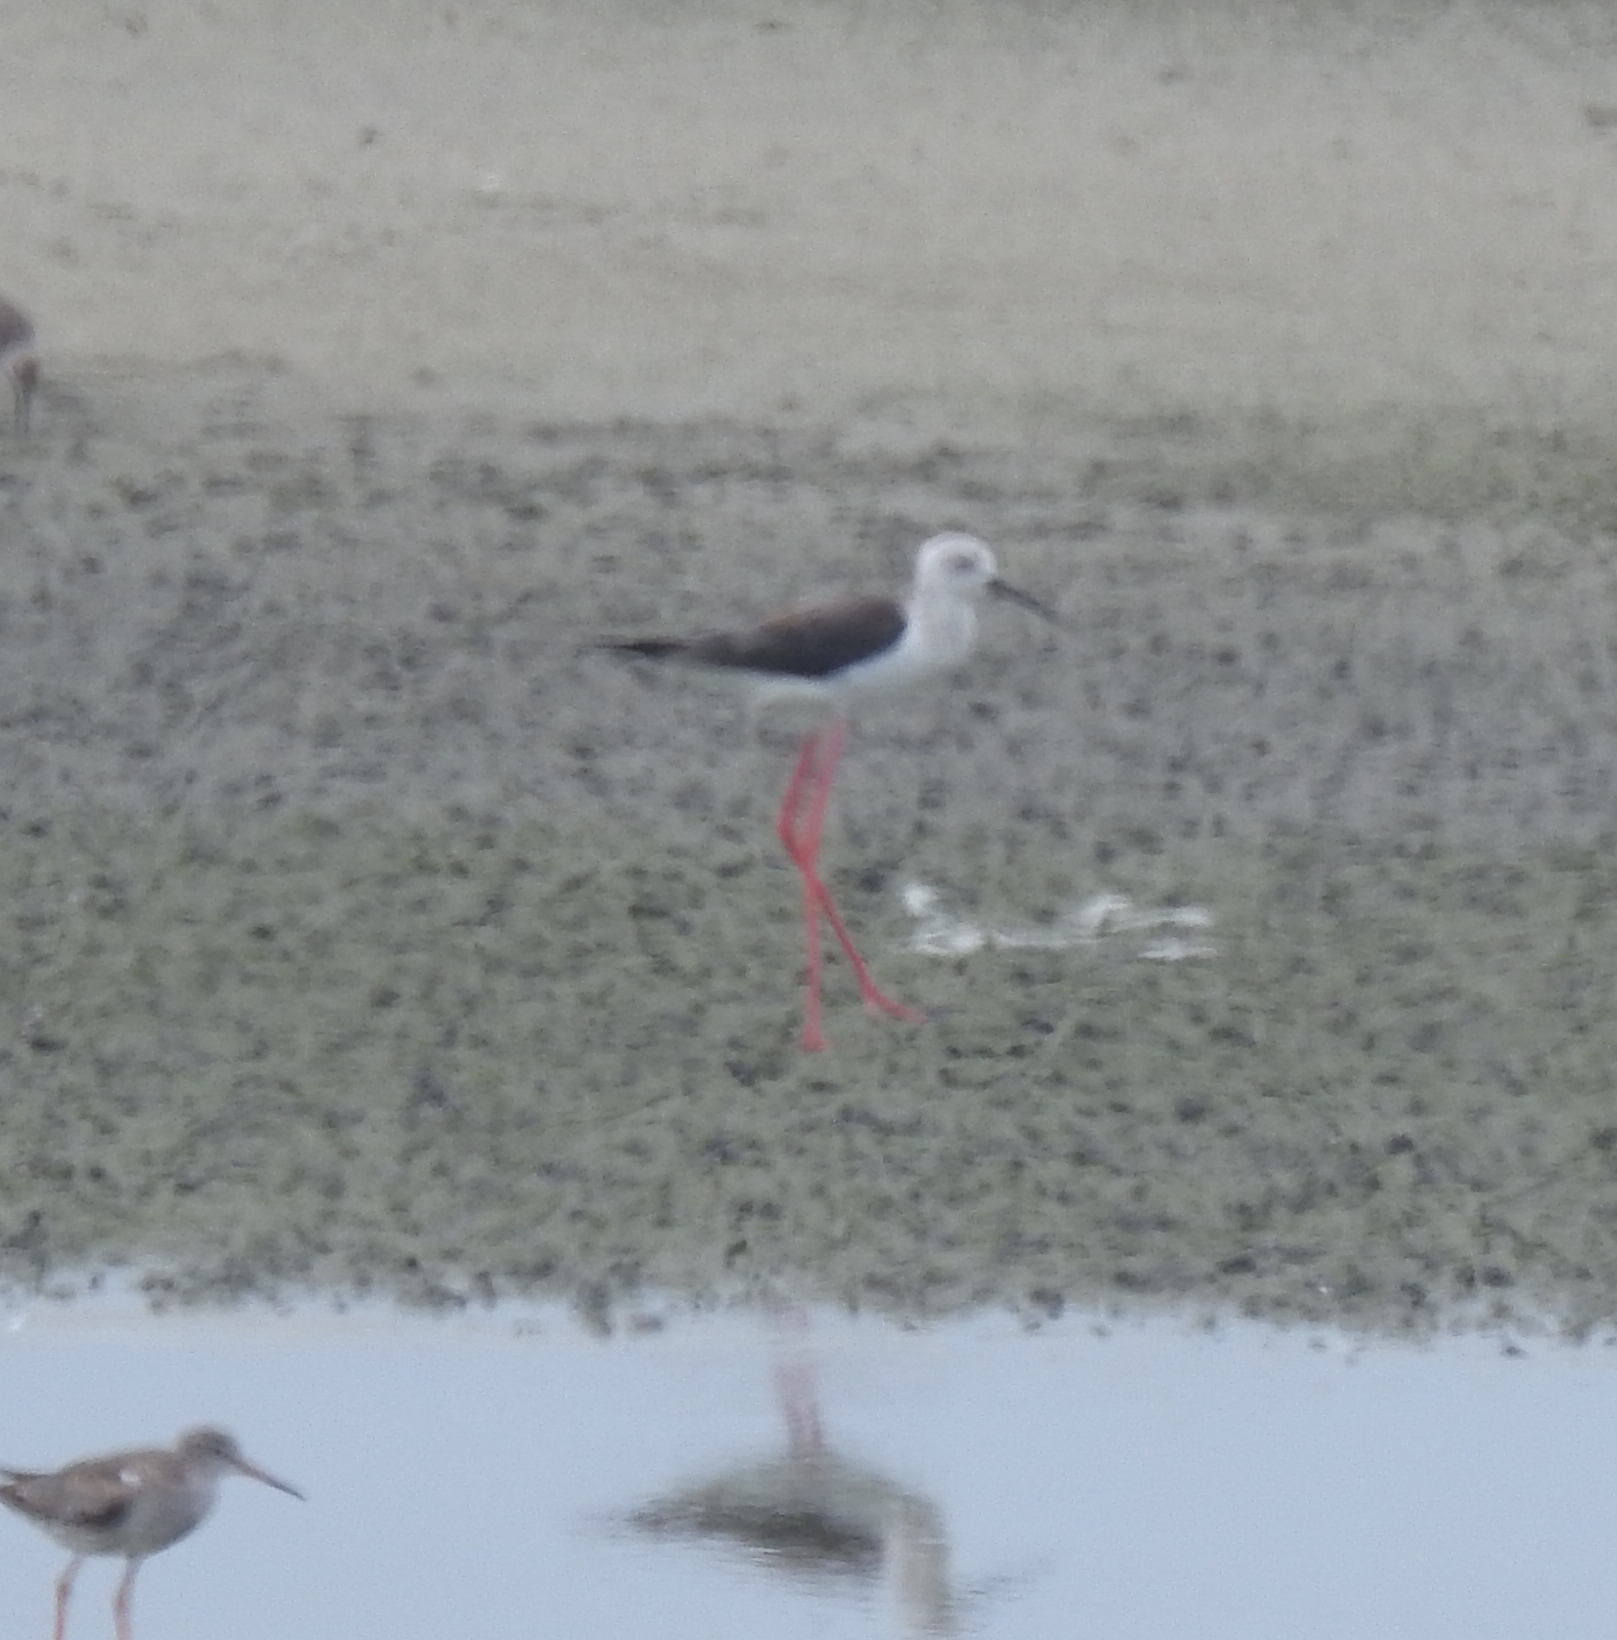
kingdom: Animalia
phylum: Chordata
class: Aves
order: Charadriiformes
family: Recurvirostridae
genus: Himantopus
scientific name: Himantopus himantopus
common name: Black-winged stilt
